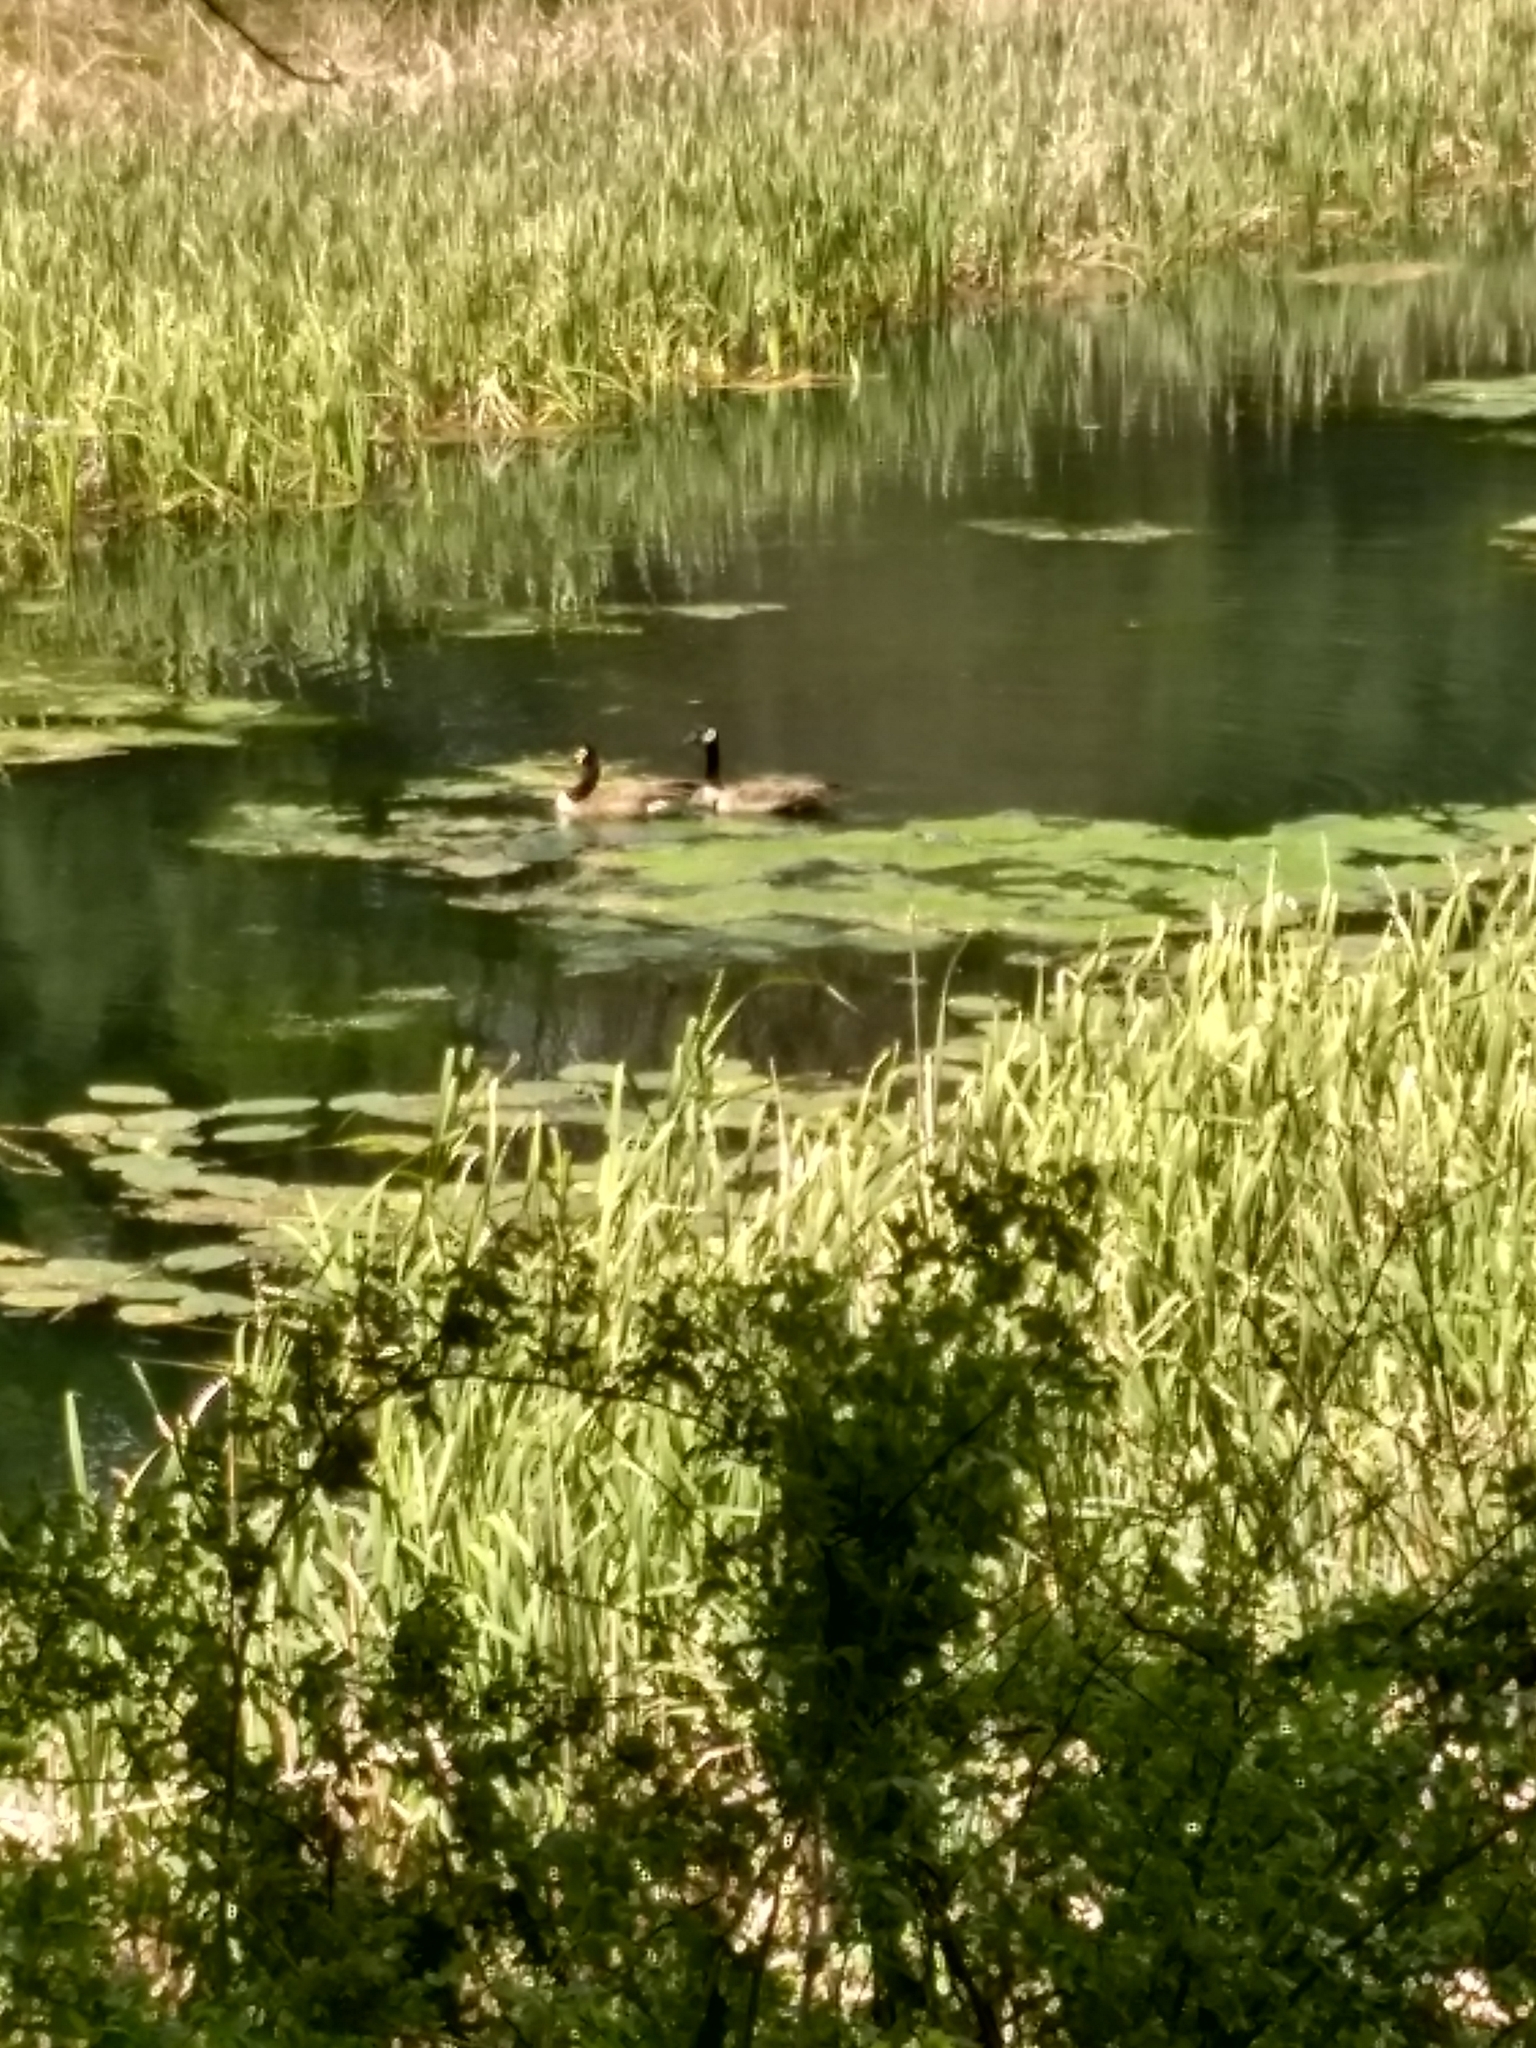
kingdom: Animalia
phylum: Chordata
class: Aves
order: Anseriformes
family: Anatidae
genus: Branta
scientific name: Branta canadensis
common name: Canada goose
